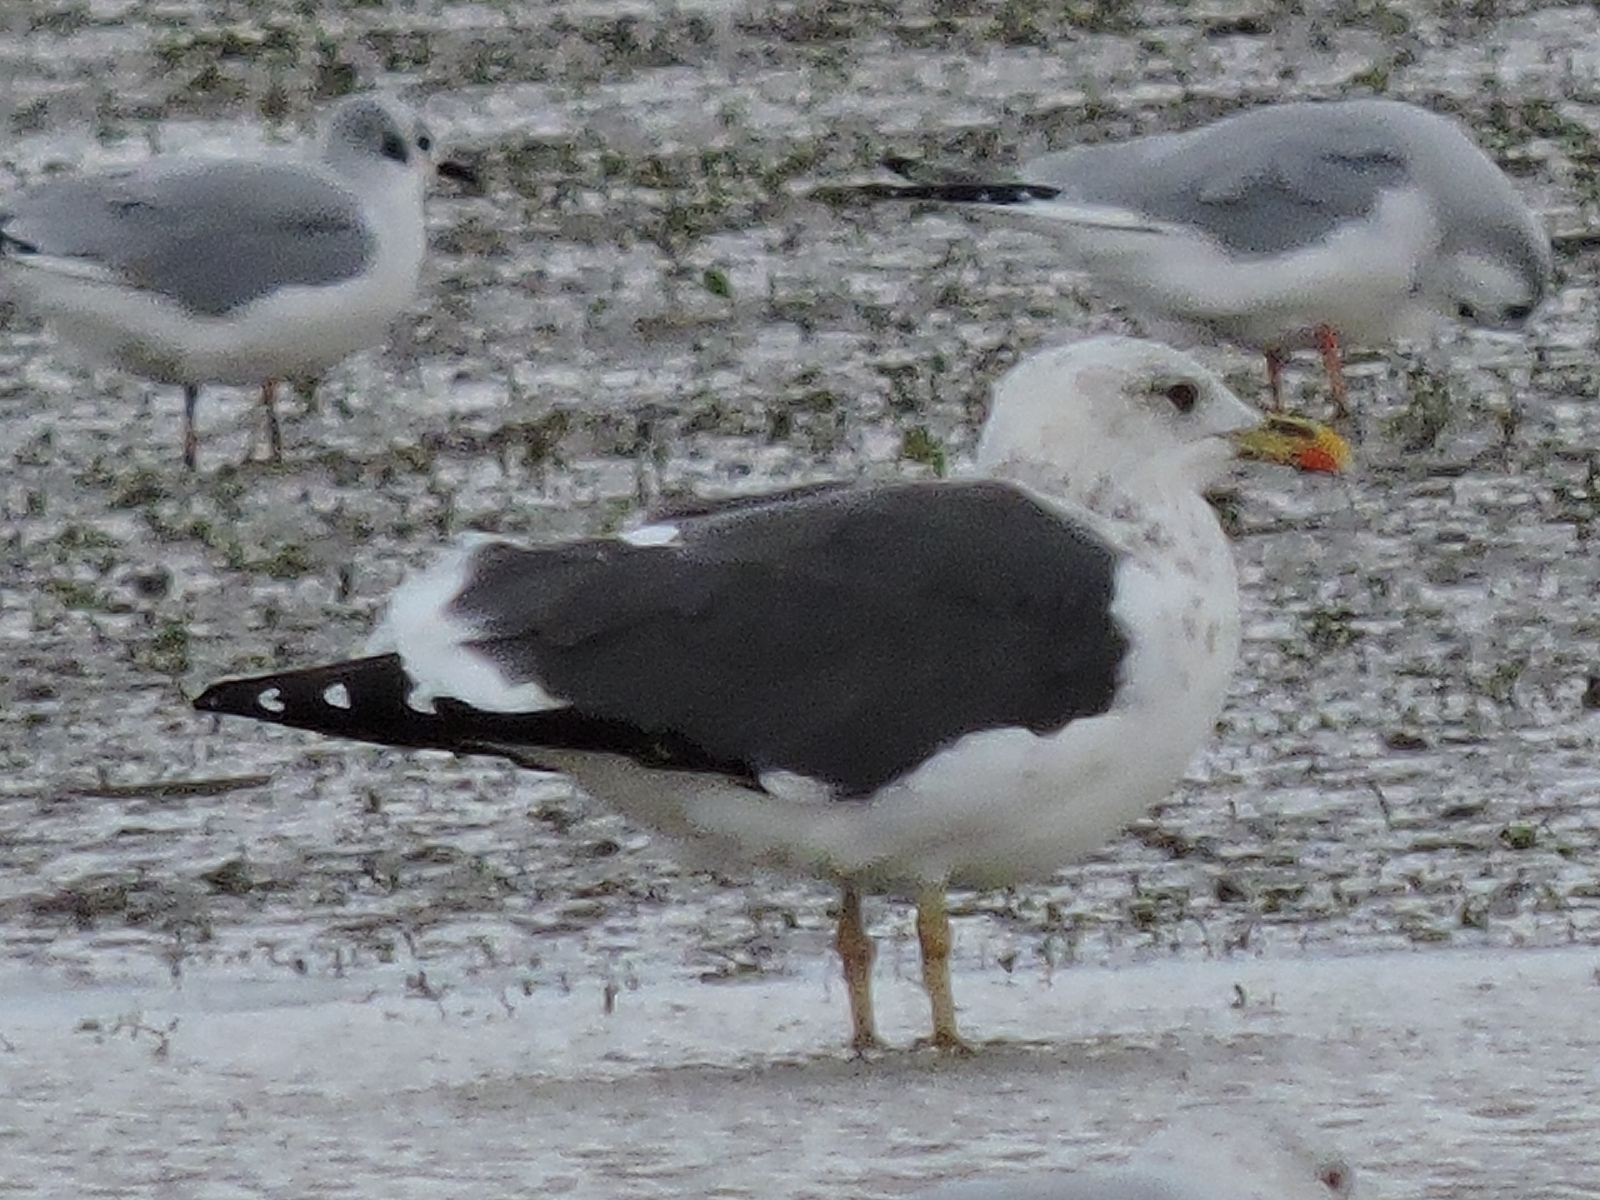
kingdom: Animalia
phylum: Chordata
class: Aves
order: Charadriiformes
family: Laridae
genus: Larus
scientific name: Larus fuscus
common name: Lesser black-backed gull
